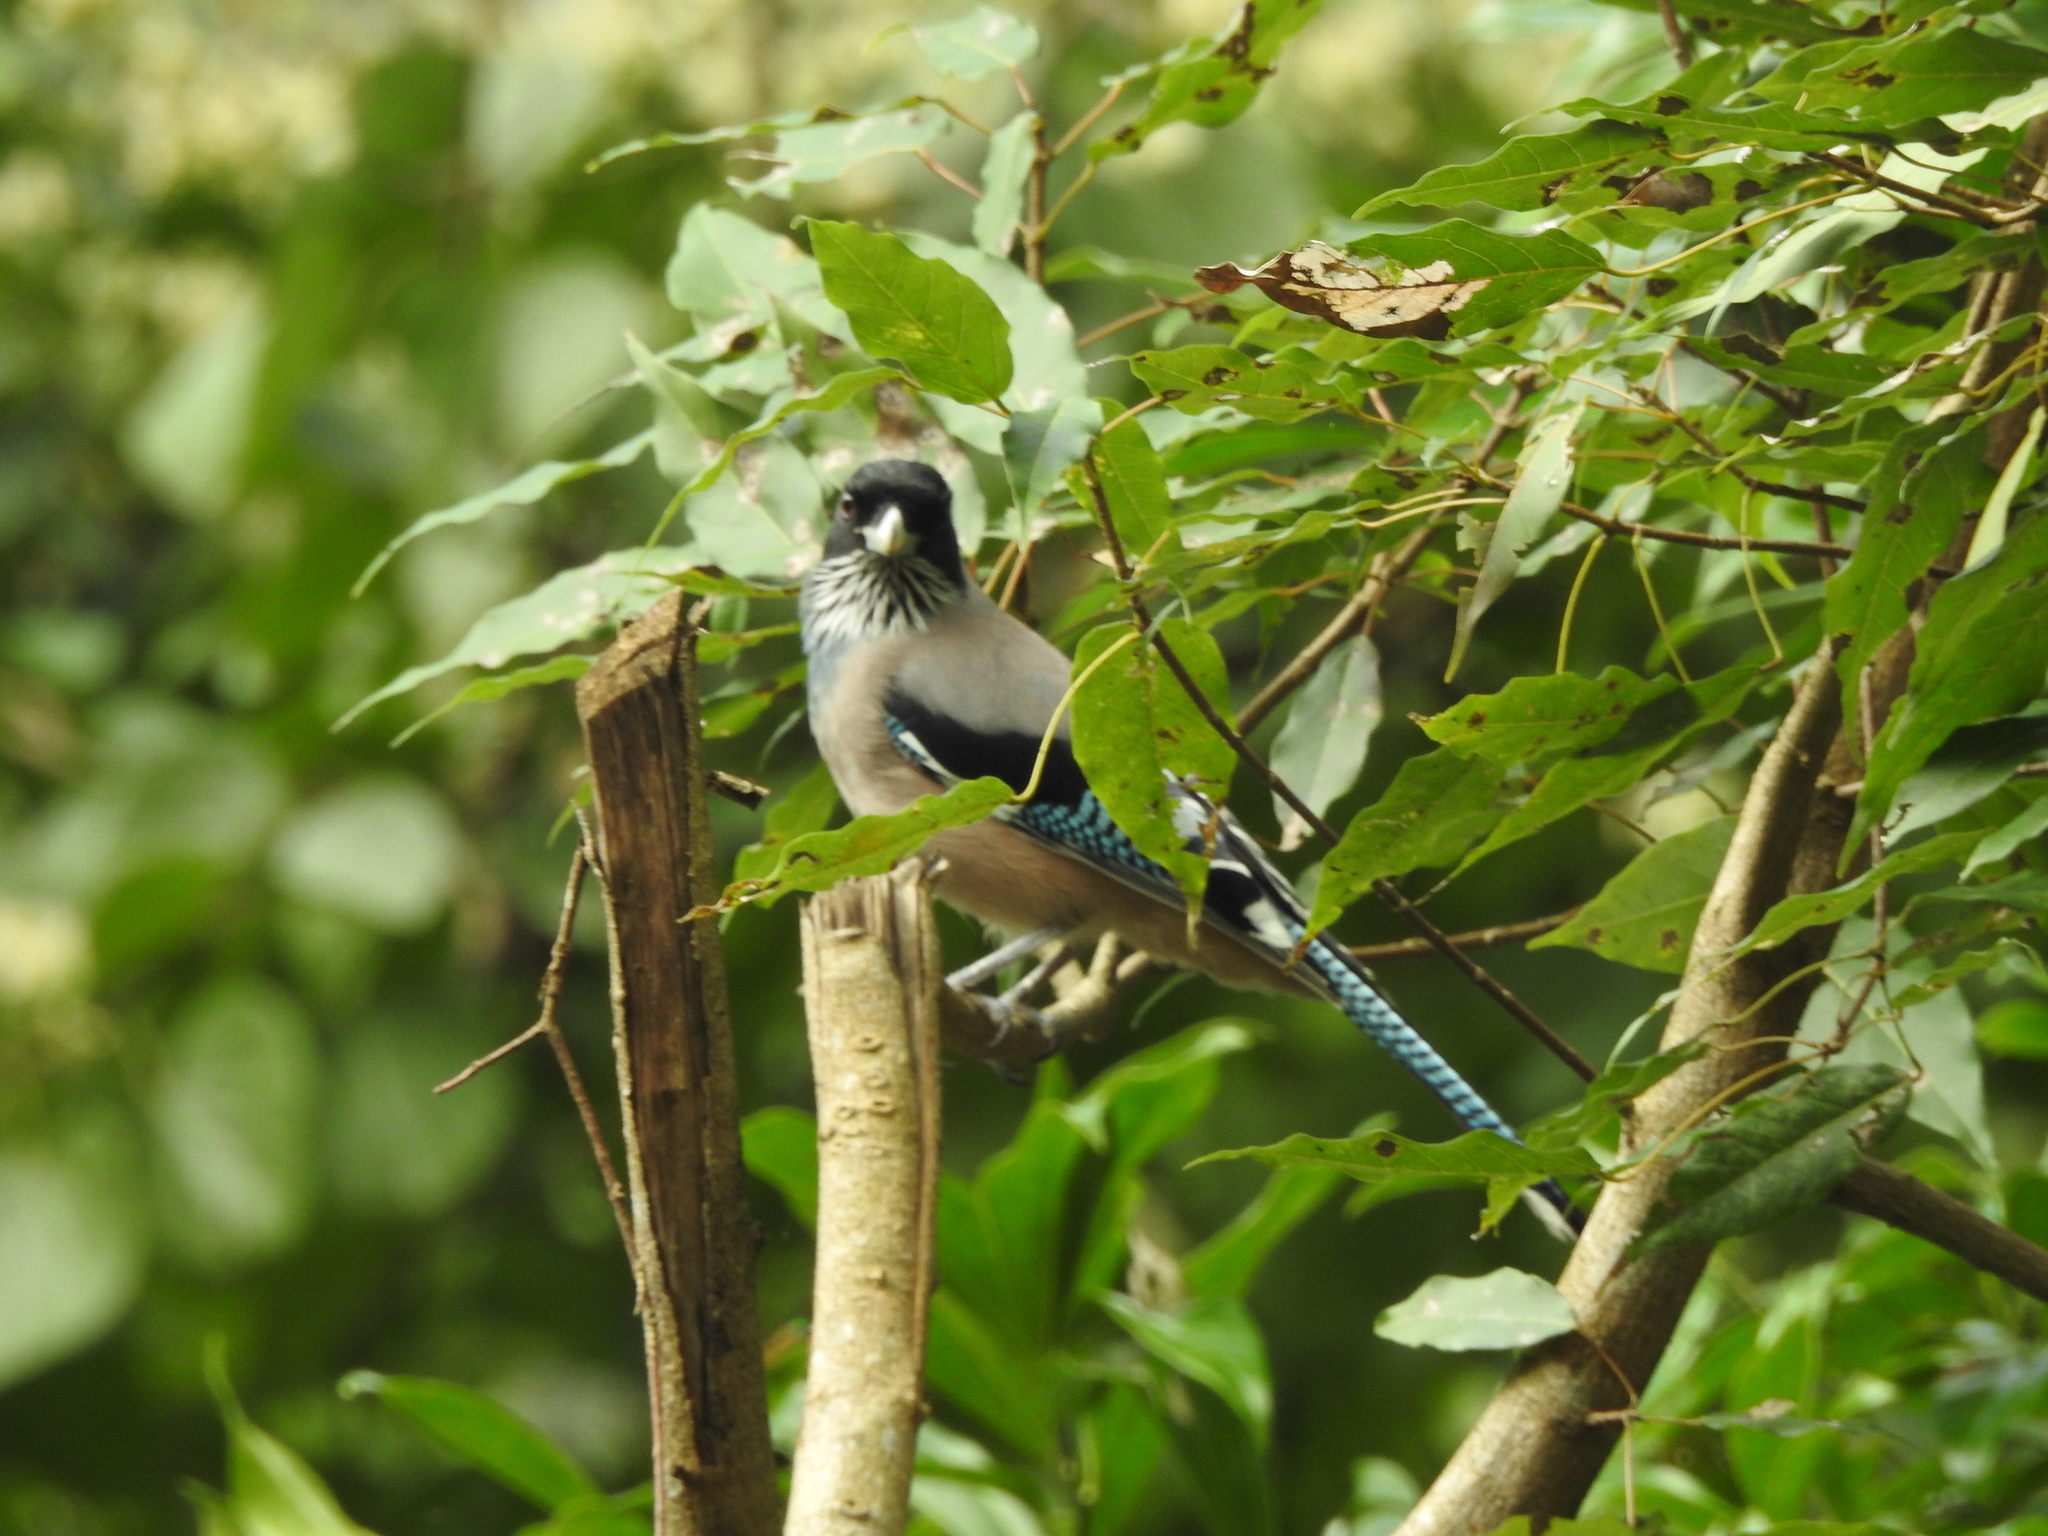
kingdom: Animalia
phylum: Chordata
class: Aves
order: Passeriformes
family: Corvidae
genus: Garrulus
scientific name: Garrulus lanceolatus
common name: Black-headed jay
